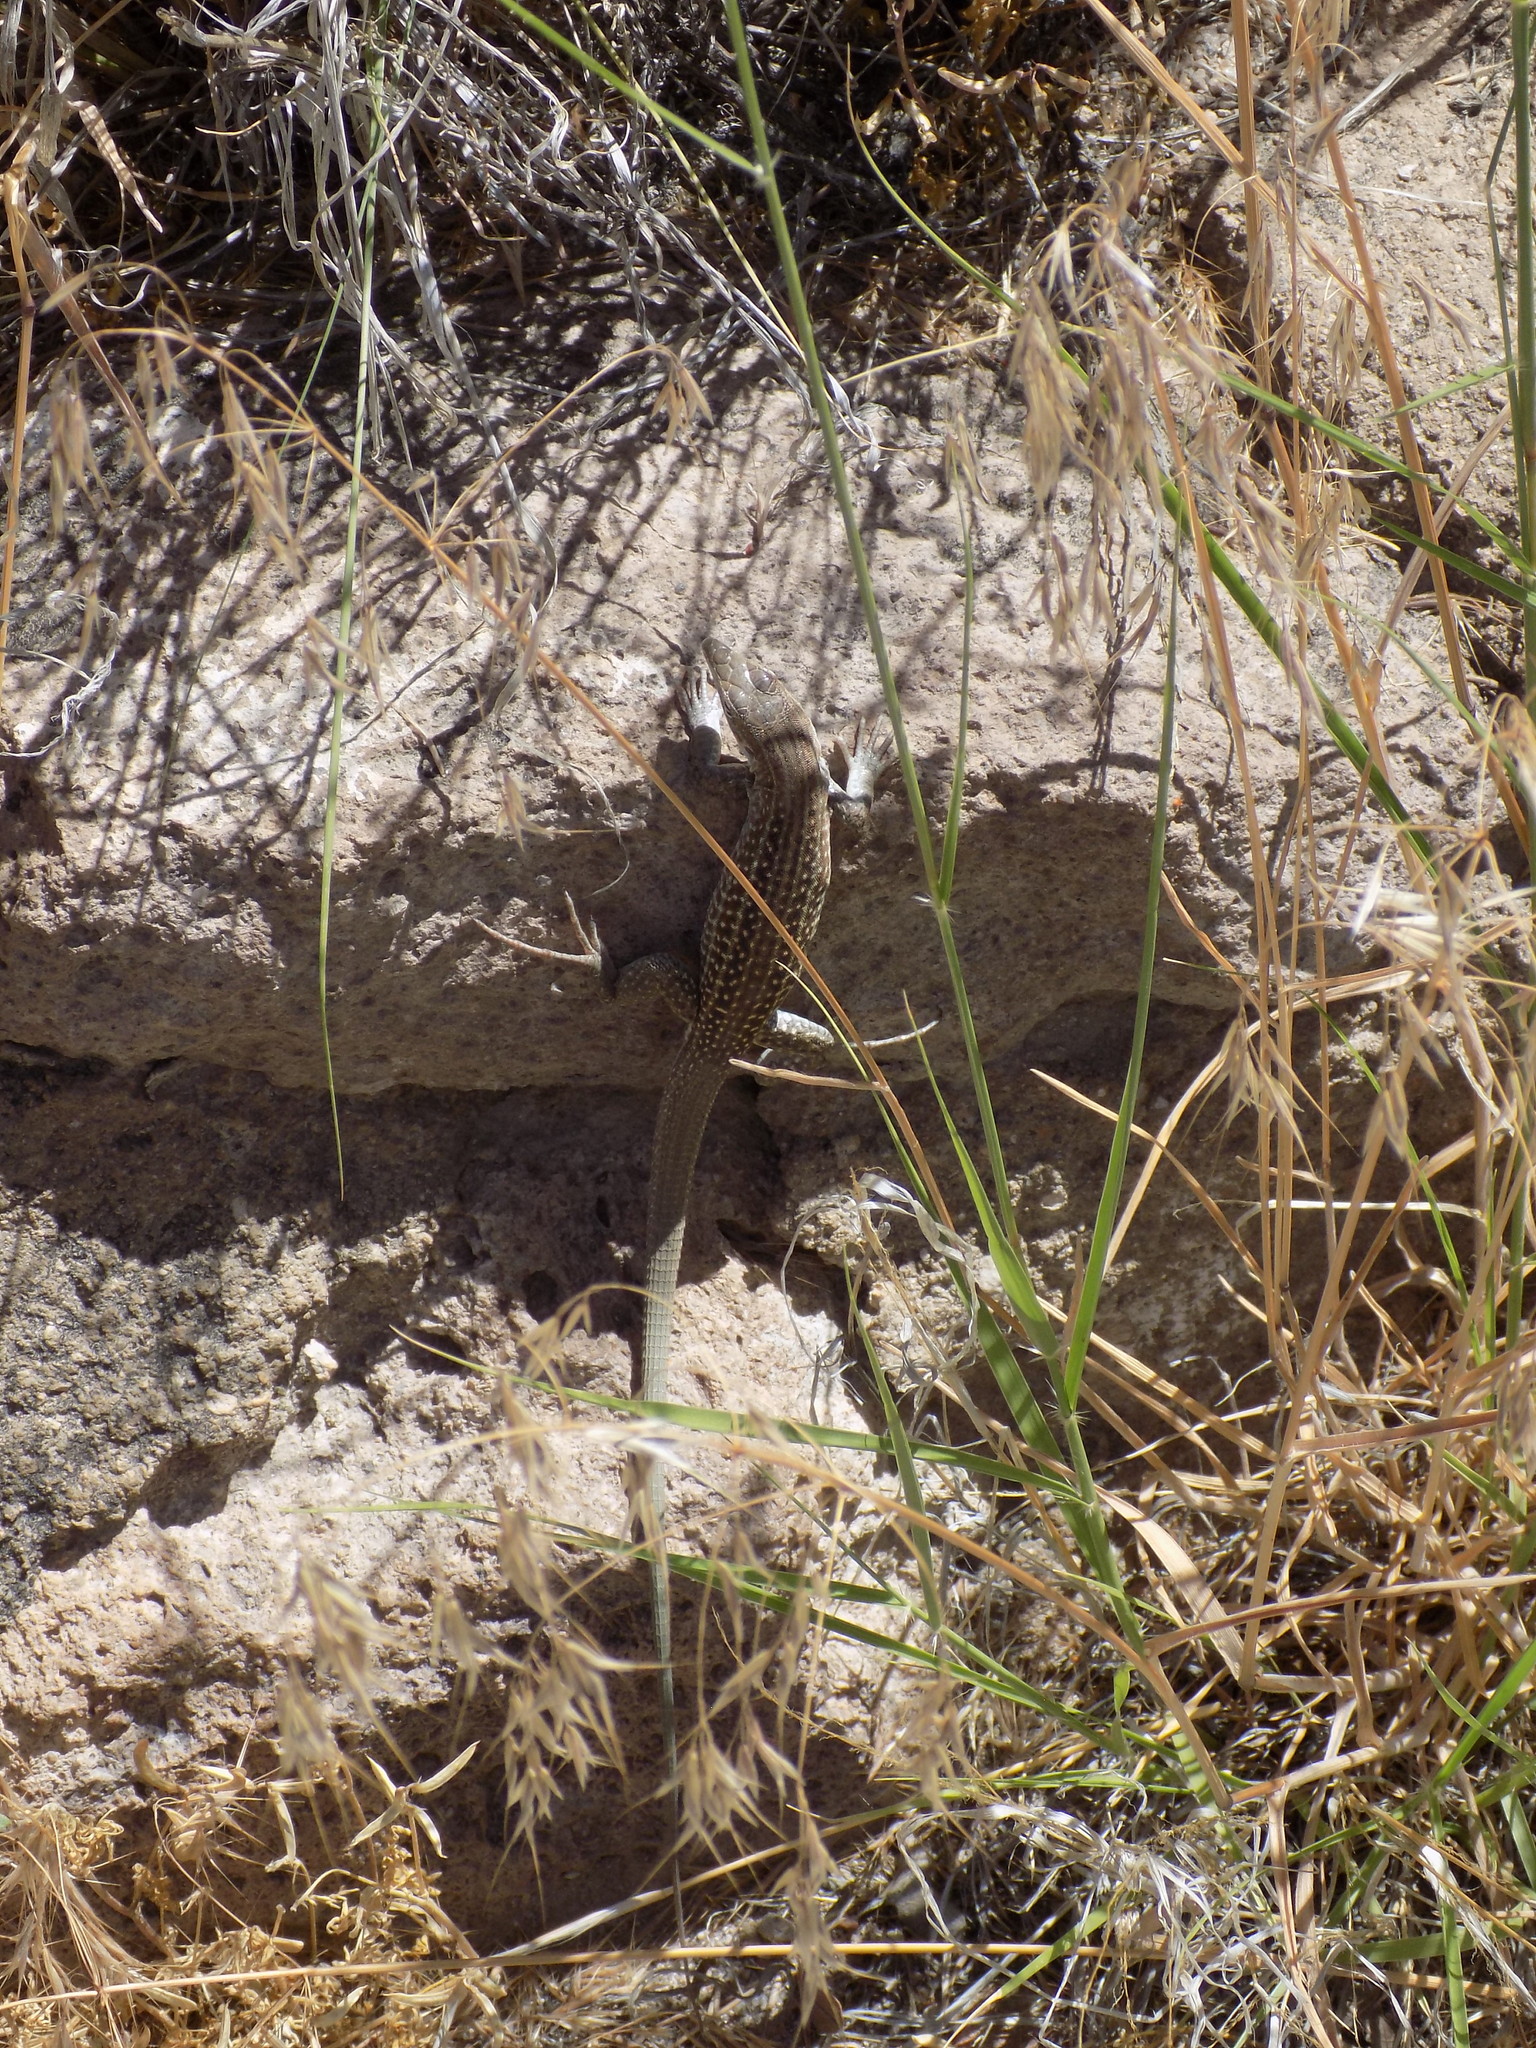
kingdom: Animalia
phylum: Chordata
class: Squamata
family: Teiidae
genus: Aspidoscelis
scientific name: Aspidoscelis exsanguis
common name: Chihuahuan spotted whiptail
